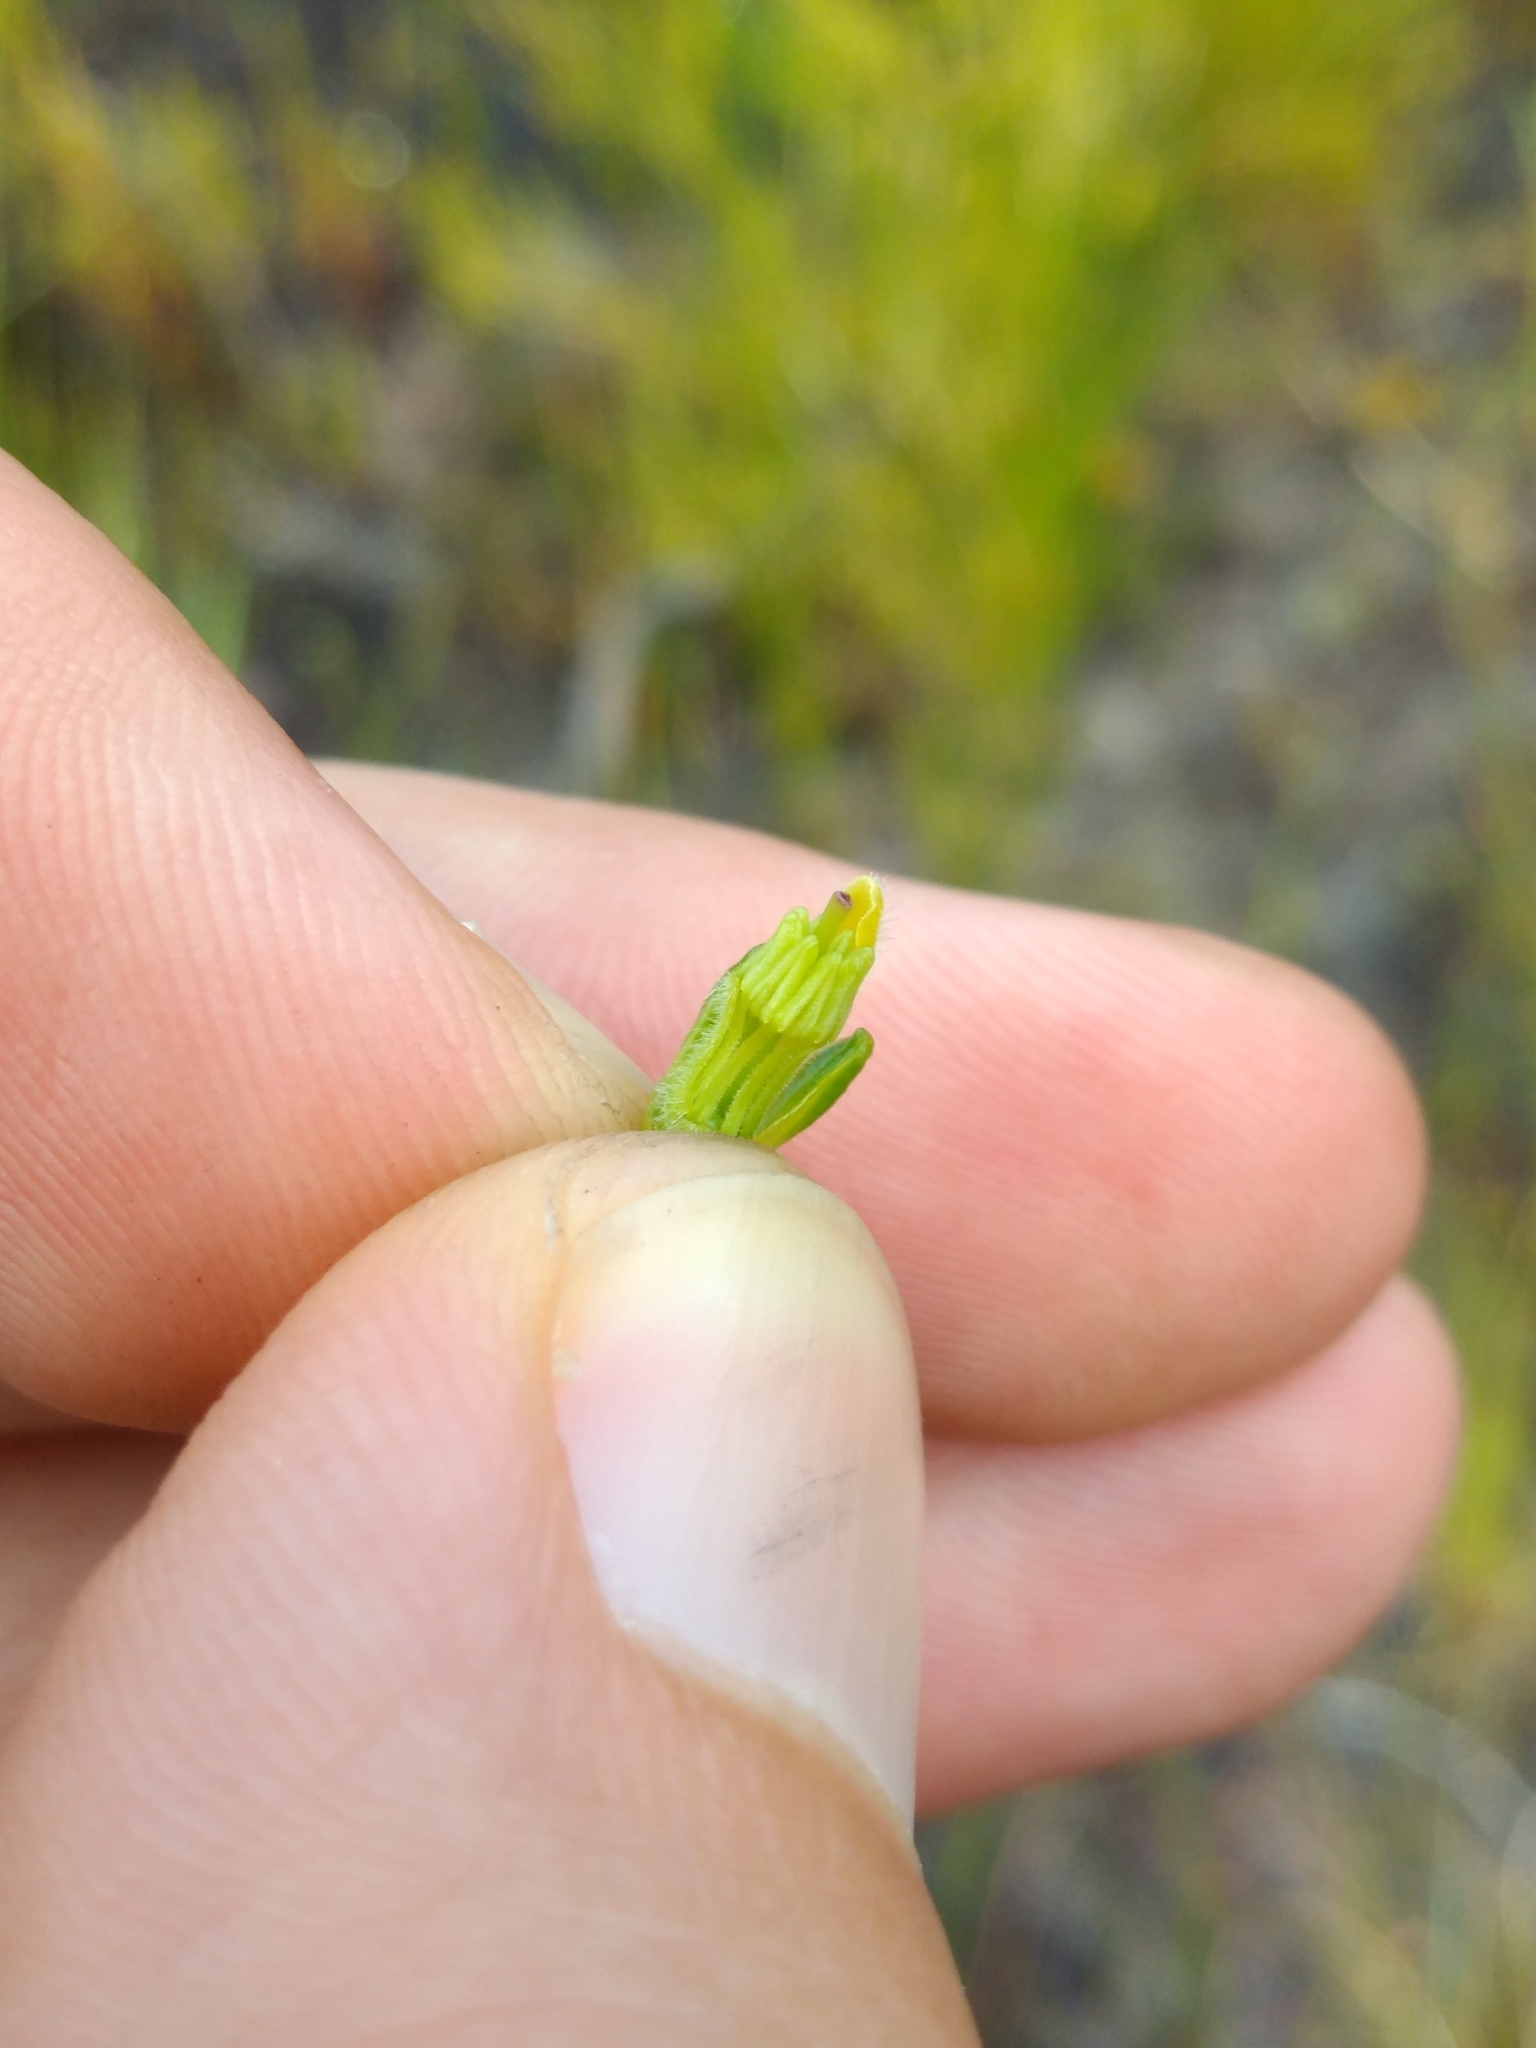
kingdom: Plantae
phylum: Tracheophyta
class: Magnoliopsida
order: Ericales
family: Ericaceae
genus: Erica
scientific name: Erica chrysocodon
